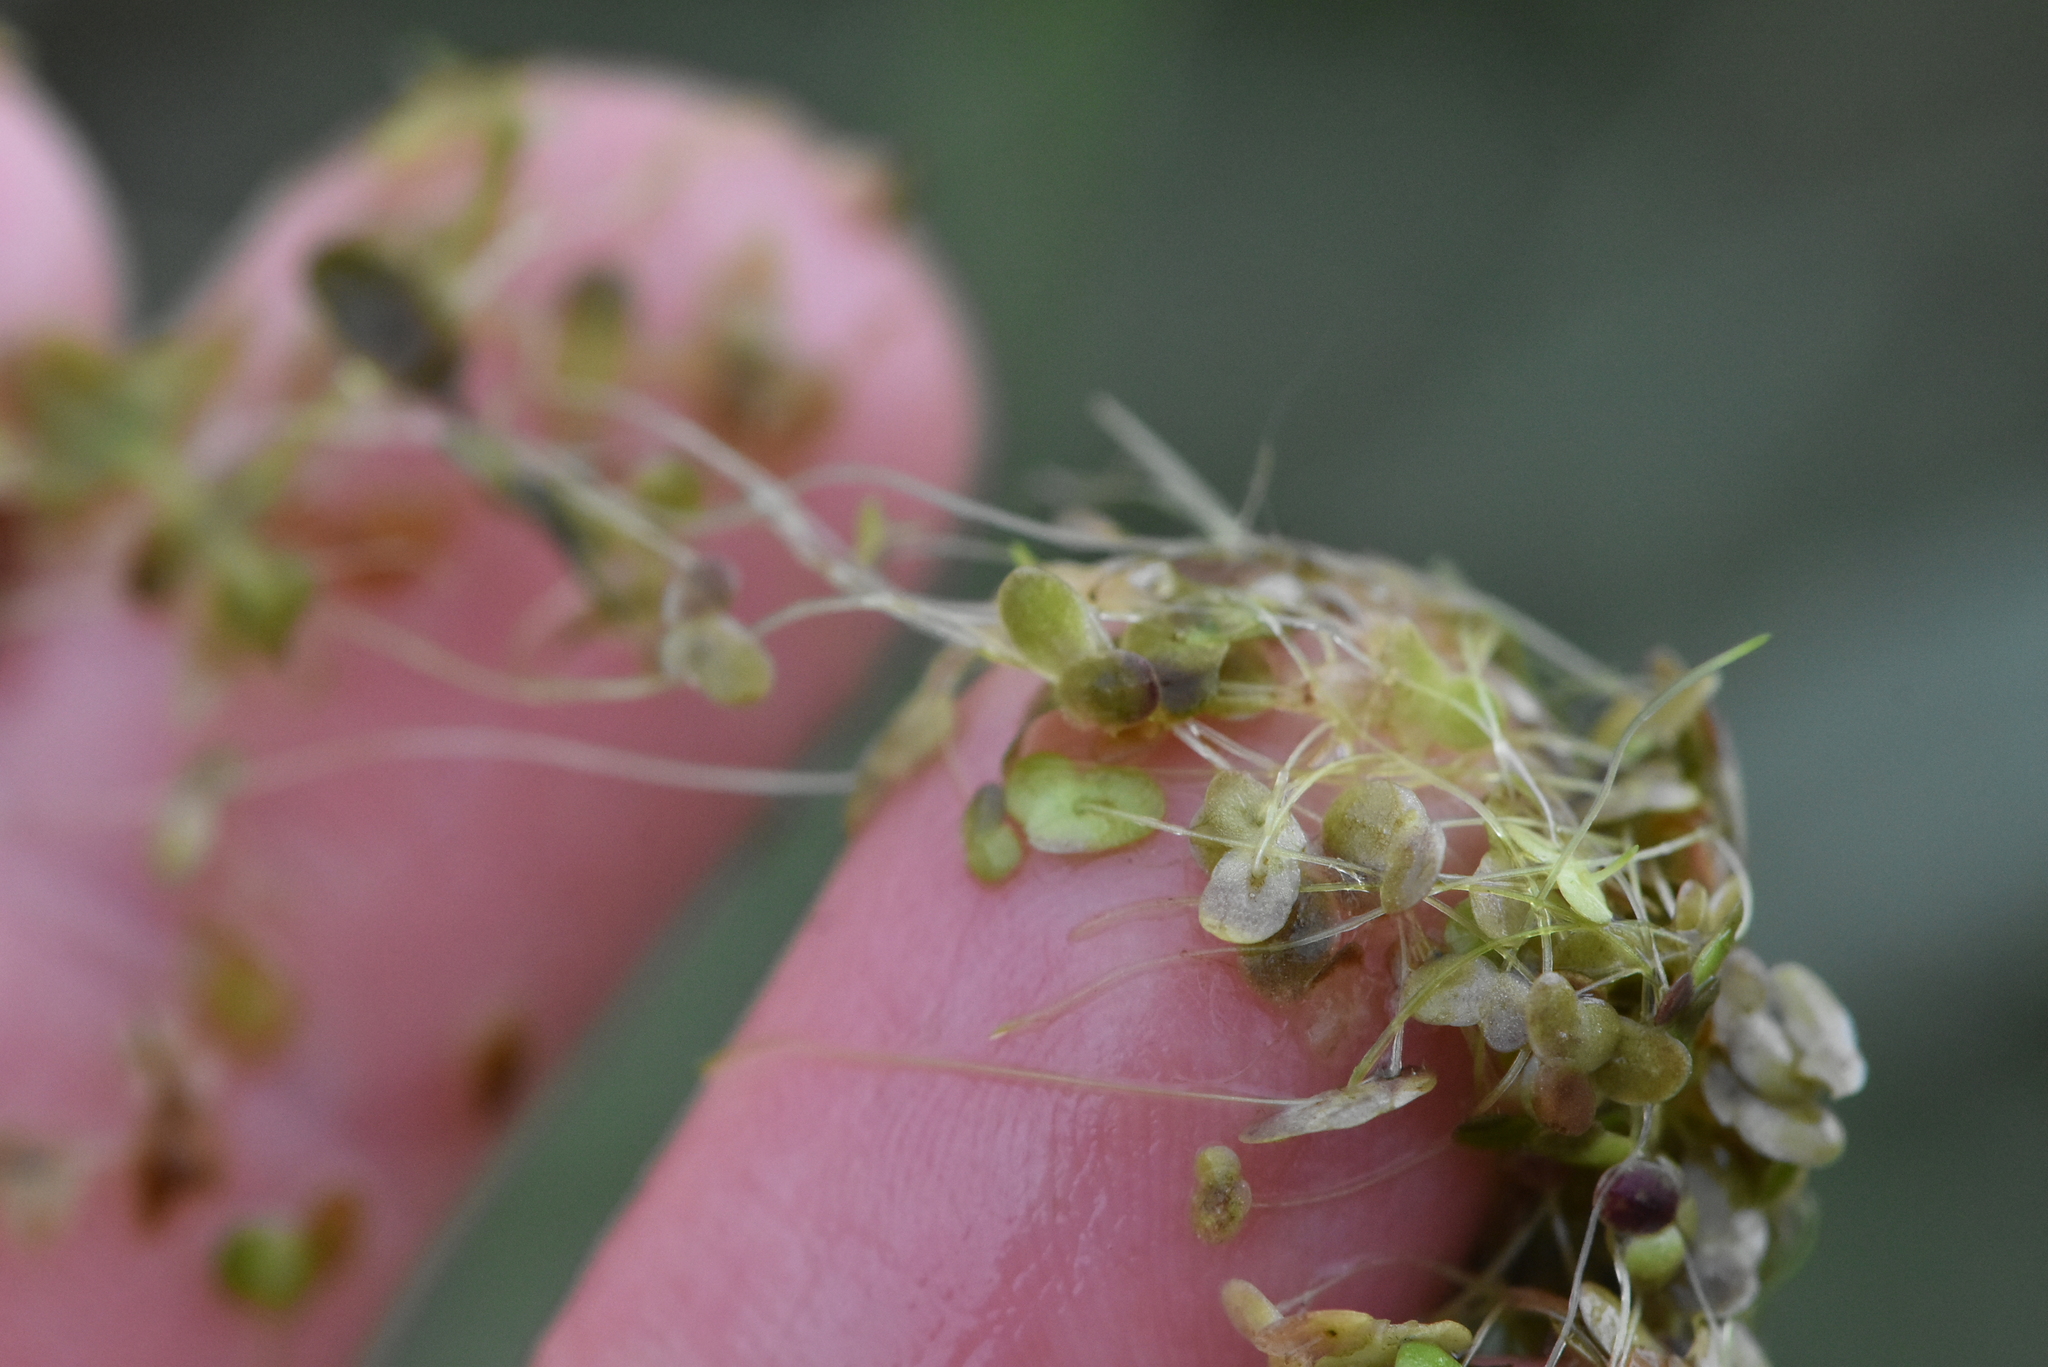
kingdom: Plantae
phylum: Tracheophyta
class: Liliopsida
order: Alismatales
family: Araceae
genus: Lemna
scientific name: Lemna turionifera
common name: Perennial duckweed
